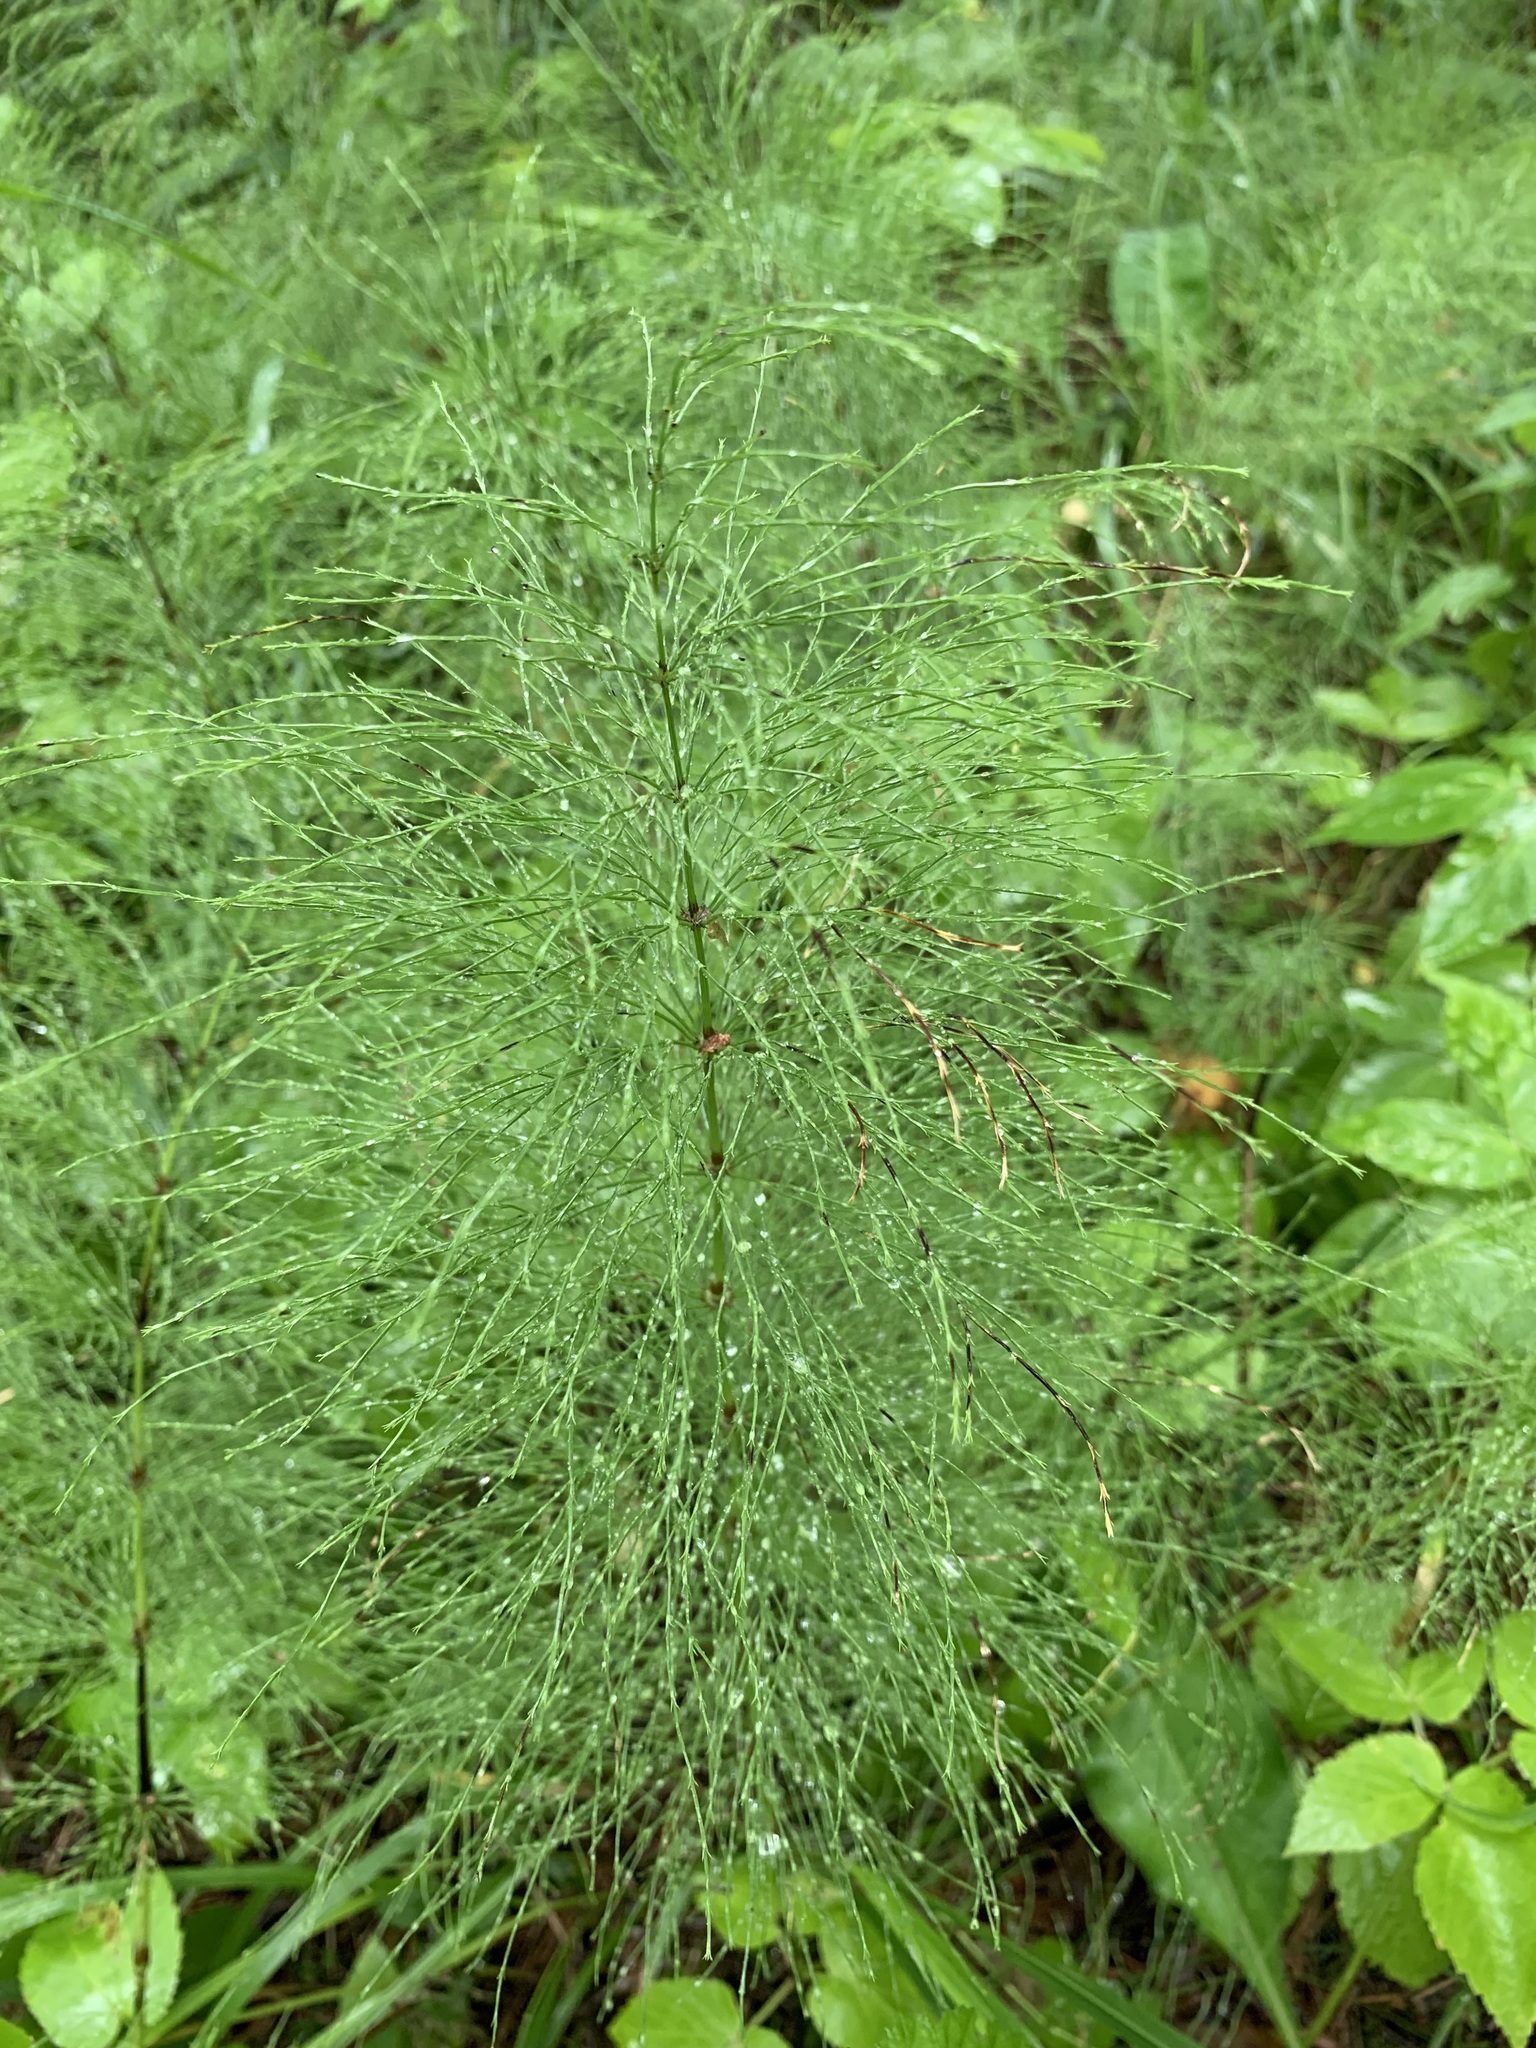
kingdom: Plantae
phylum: Tracheophyta
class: Polypodiopsida
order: Equisetales
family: Equisetaceae
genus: Equisetum
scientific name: Equisetum sylvaticum
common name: Wood horsetail
